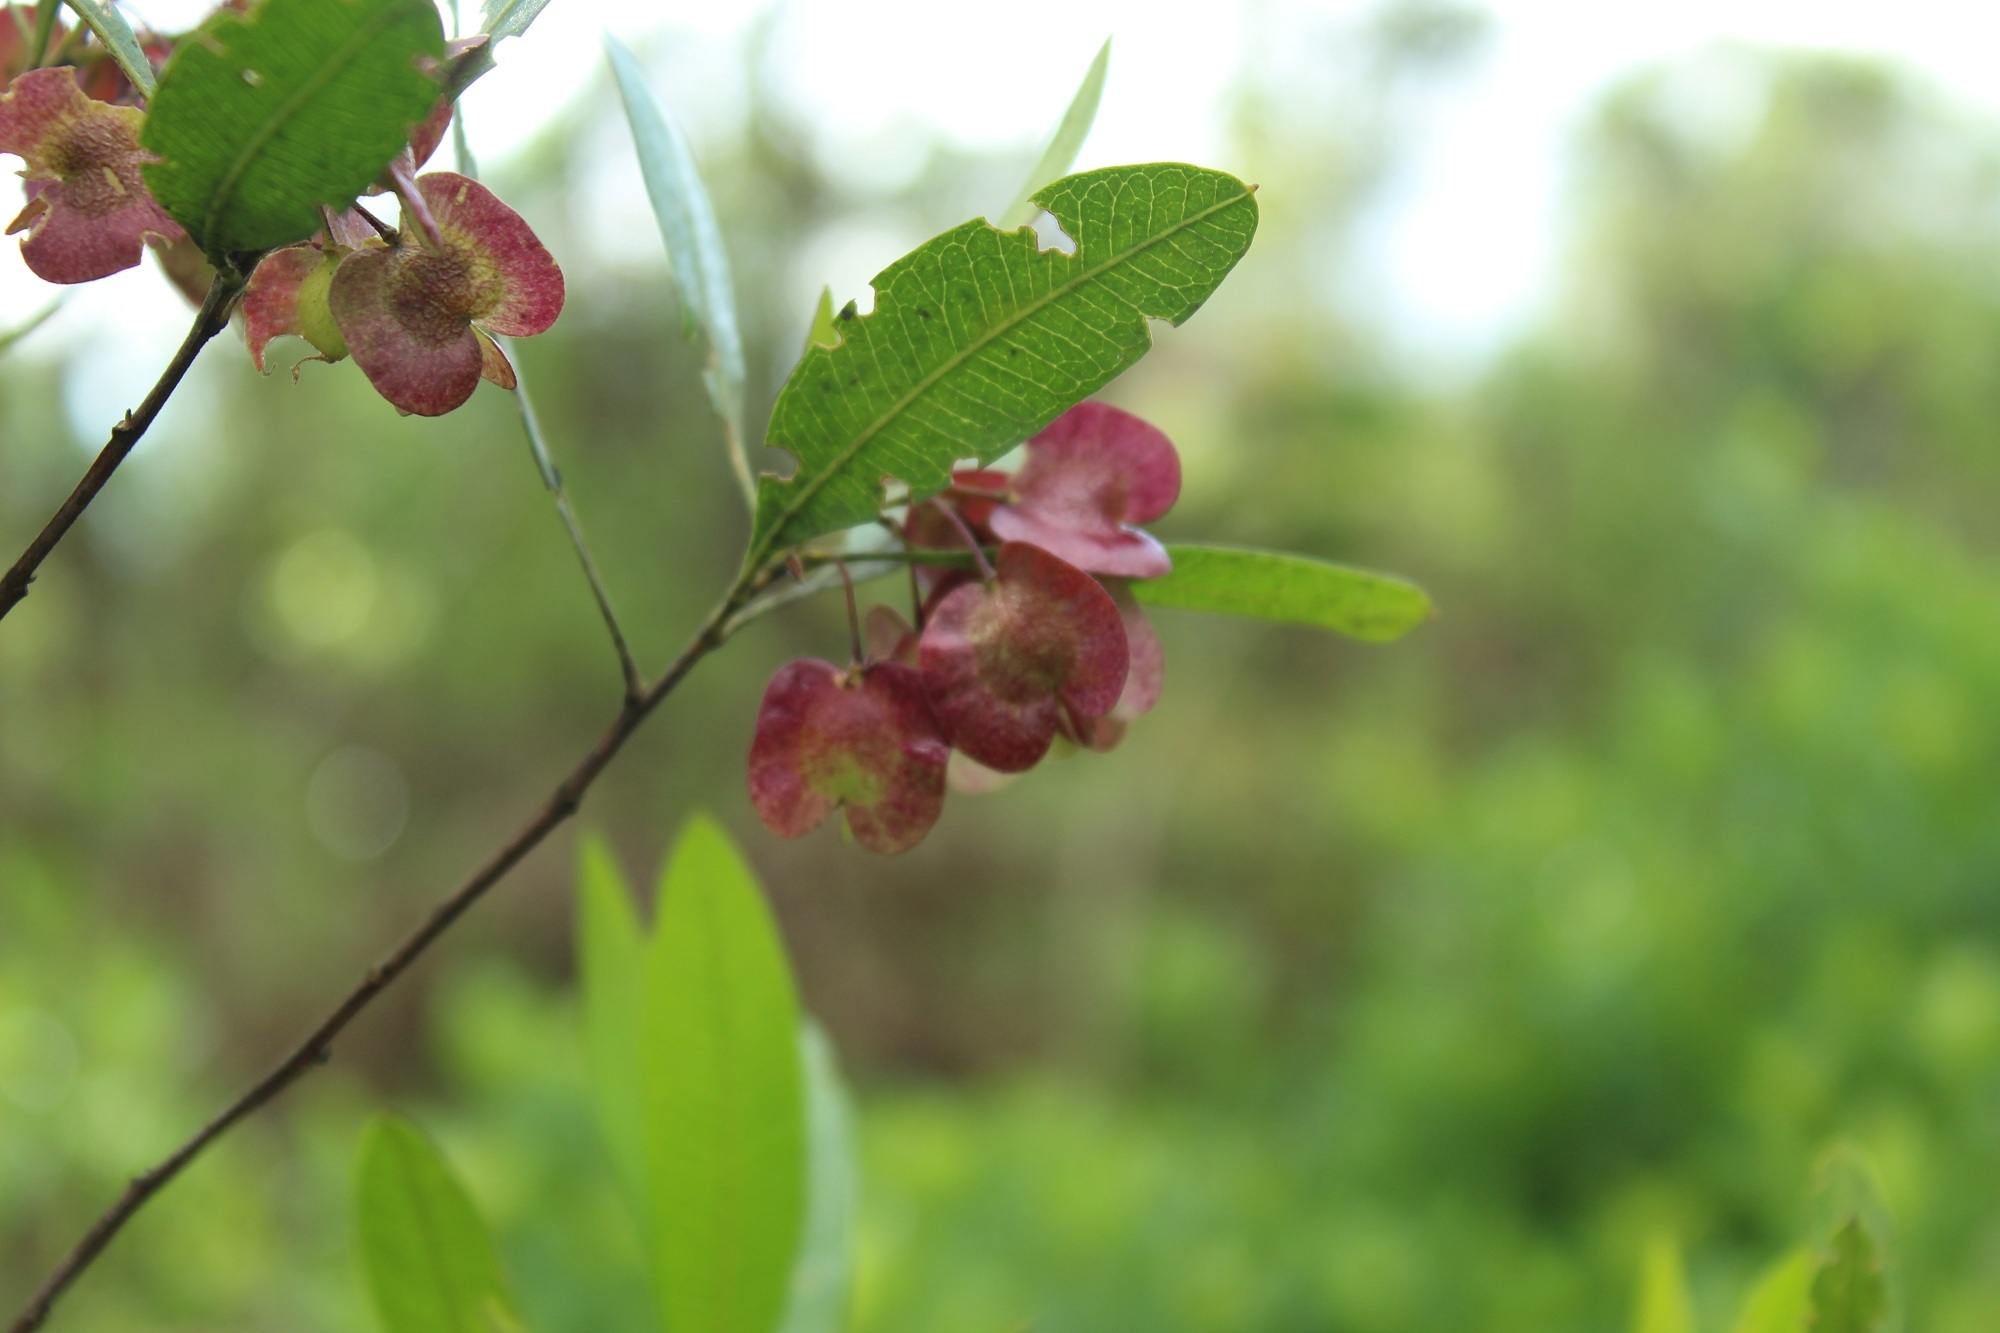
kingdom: Plantae
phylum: Tracheophyta
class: Magnoliopsida
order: Sapindales
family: Sapindaceae
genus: Dodonaea
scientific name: Dodonaea viscosa
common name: Hopbush
